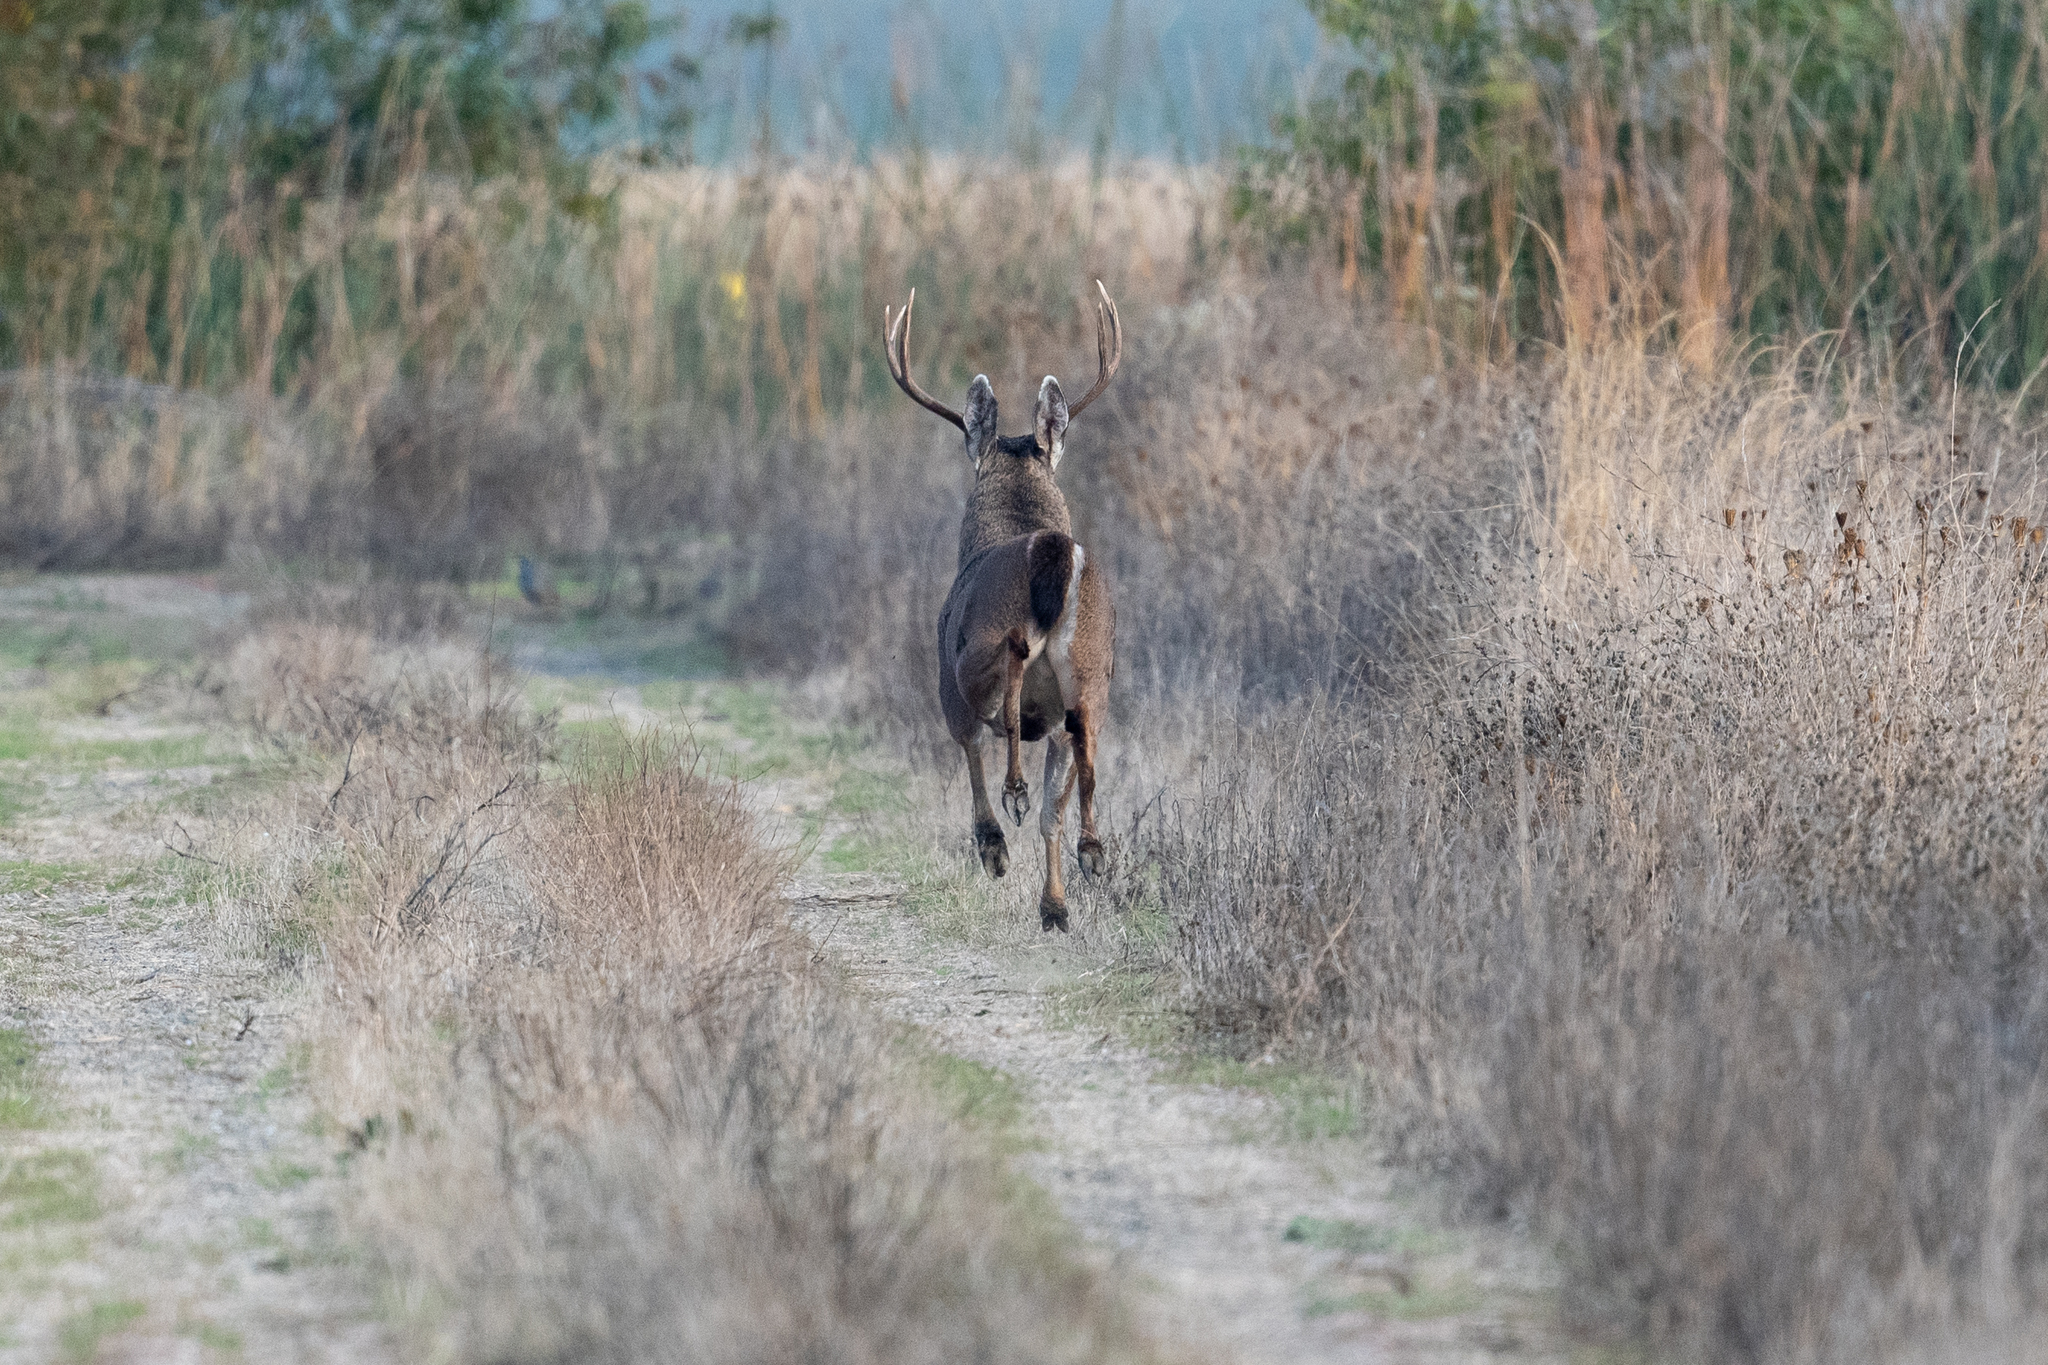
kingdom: Animalia
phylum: Chordata
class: Mammalia
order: Artiodactyla
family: Cervidae
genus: Odocoileus
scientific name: Odocoileus hemionus
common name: Mule deer
